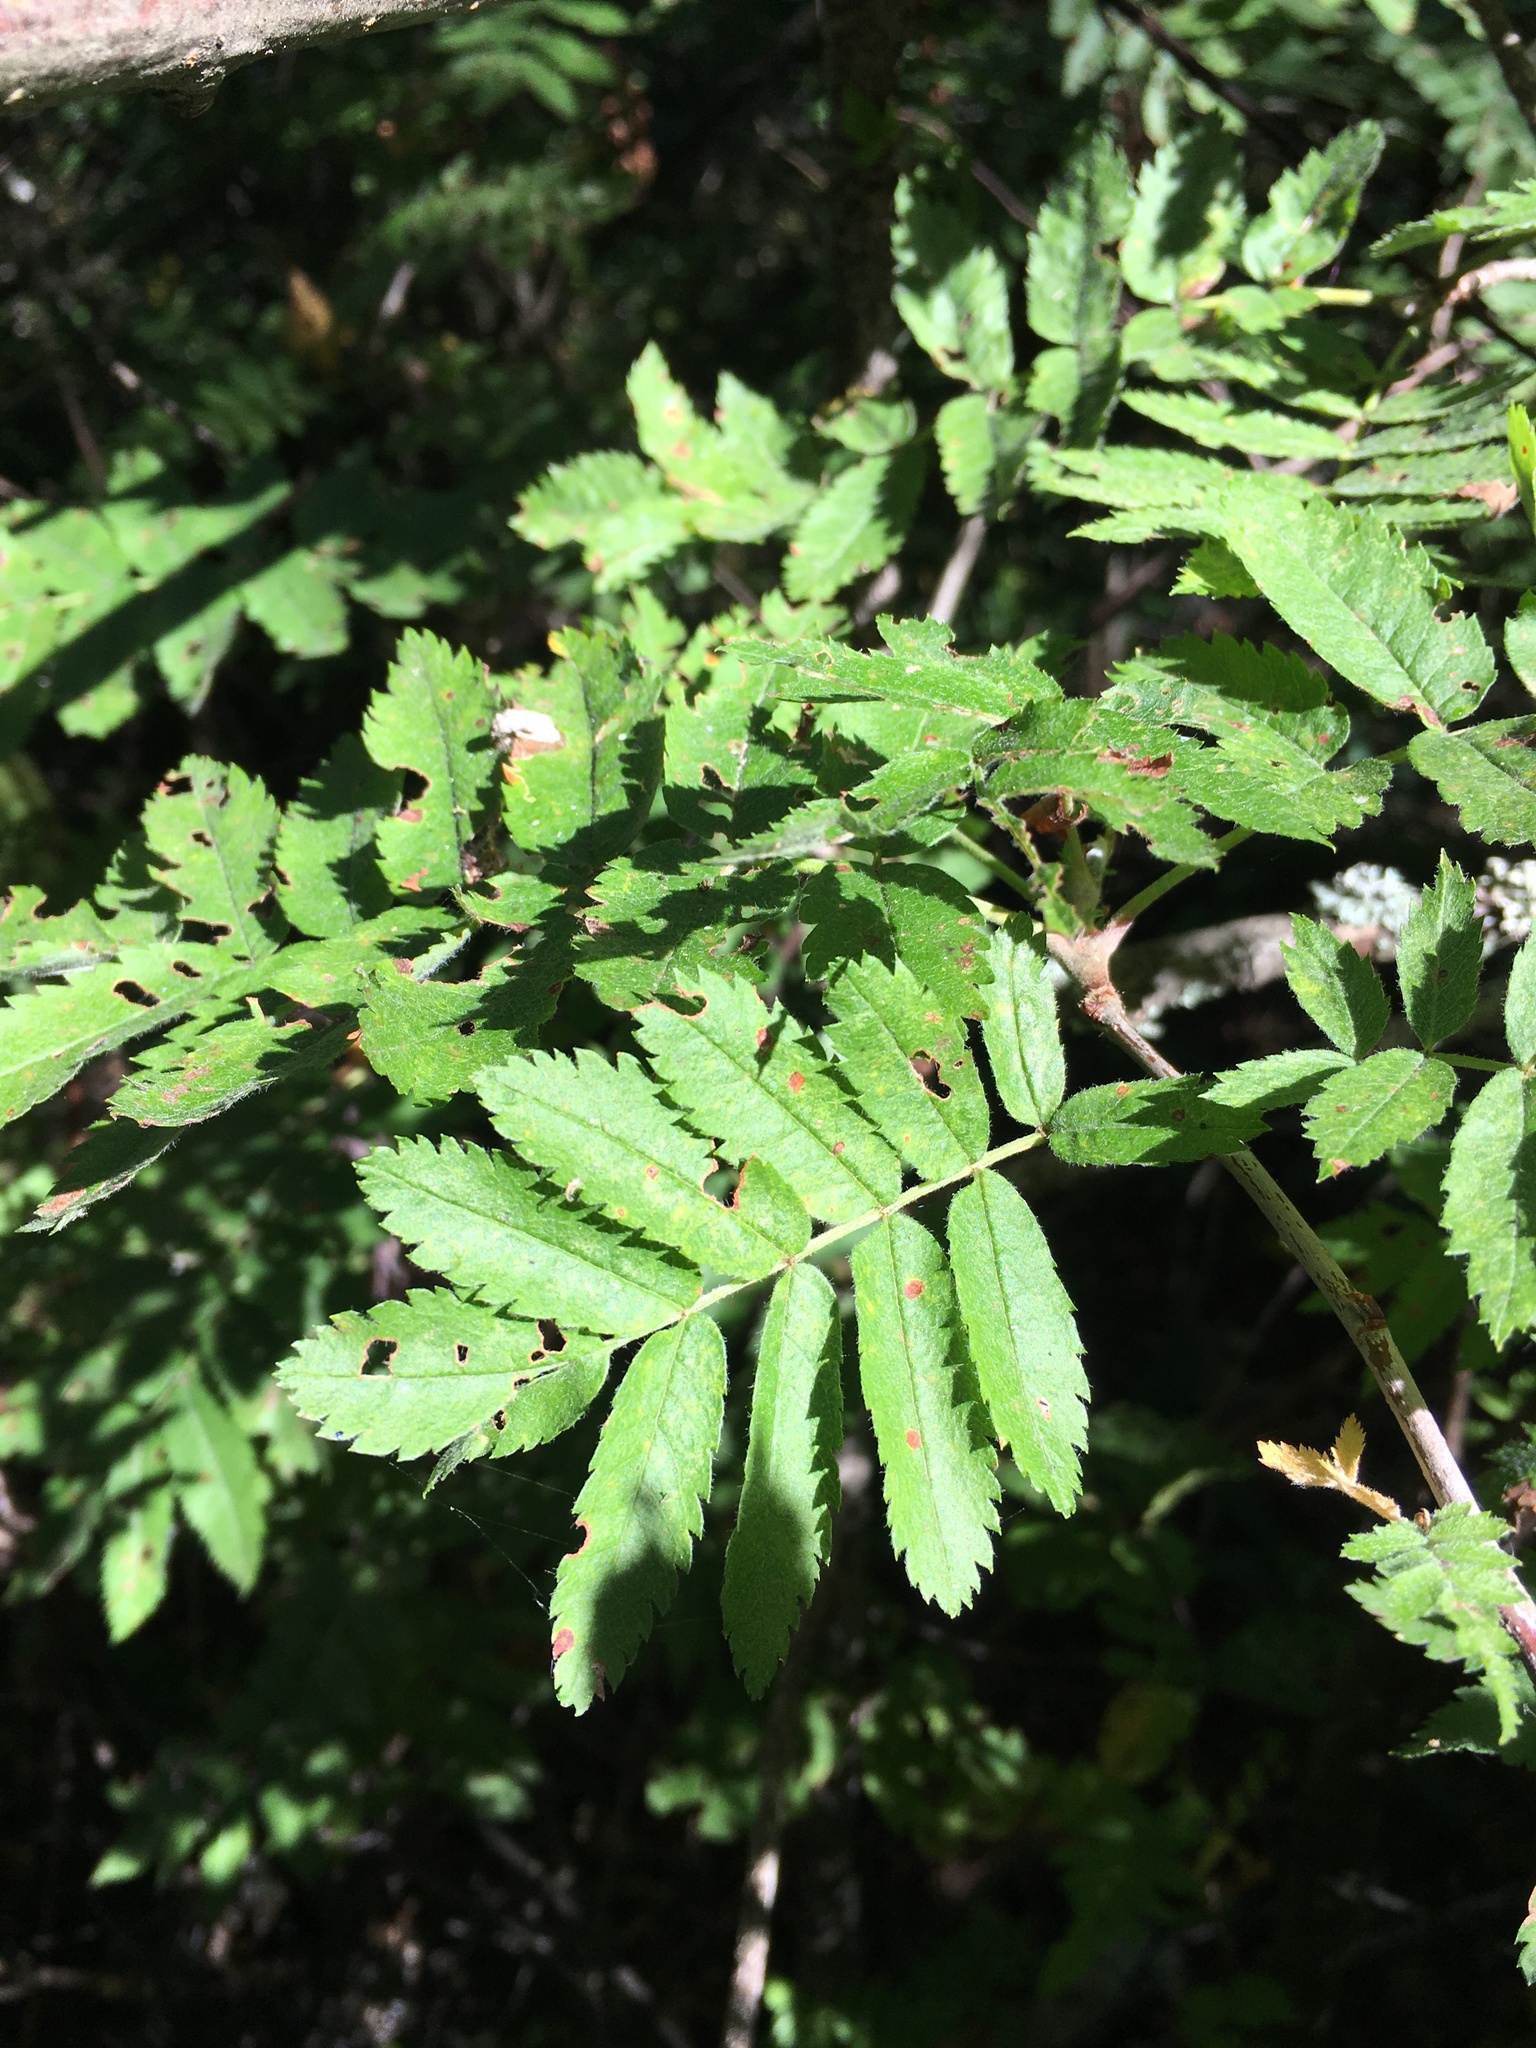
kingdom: Plantae
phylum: Tracheophyta
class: Magnoliopsida
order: Rosales
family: Rosaceae
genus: Sorbus
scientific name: Sorbus aucuparia
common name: Rowan
